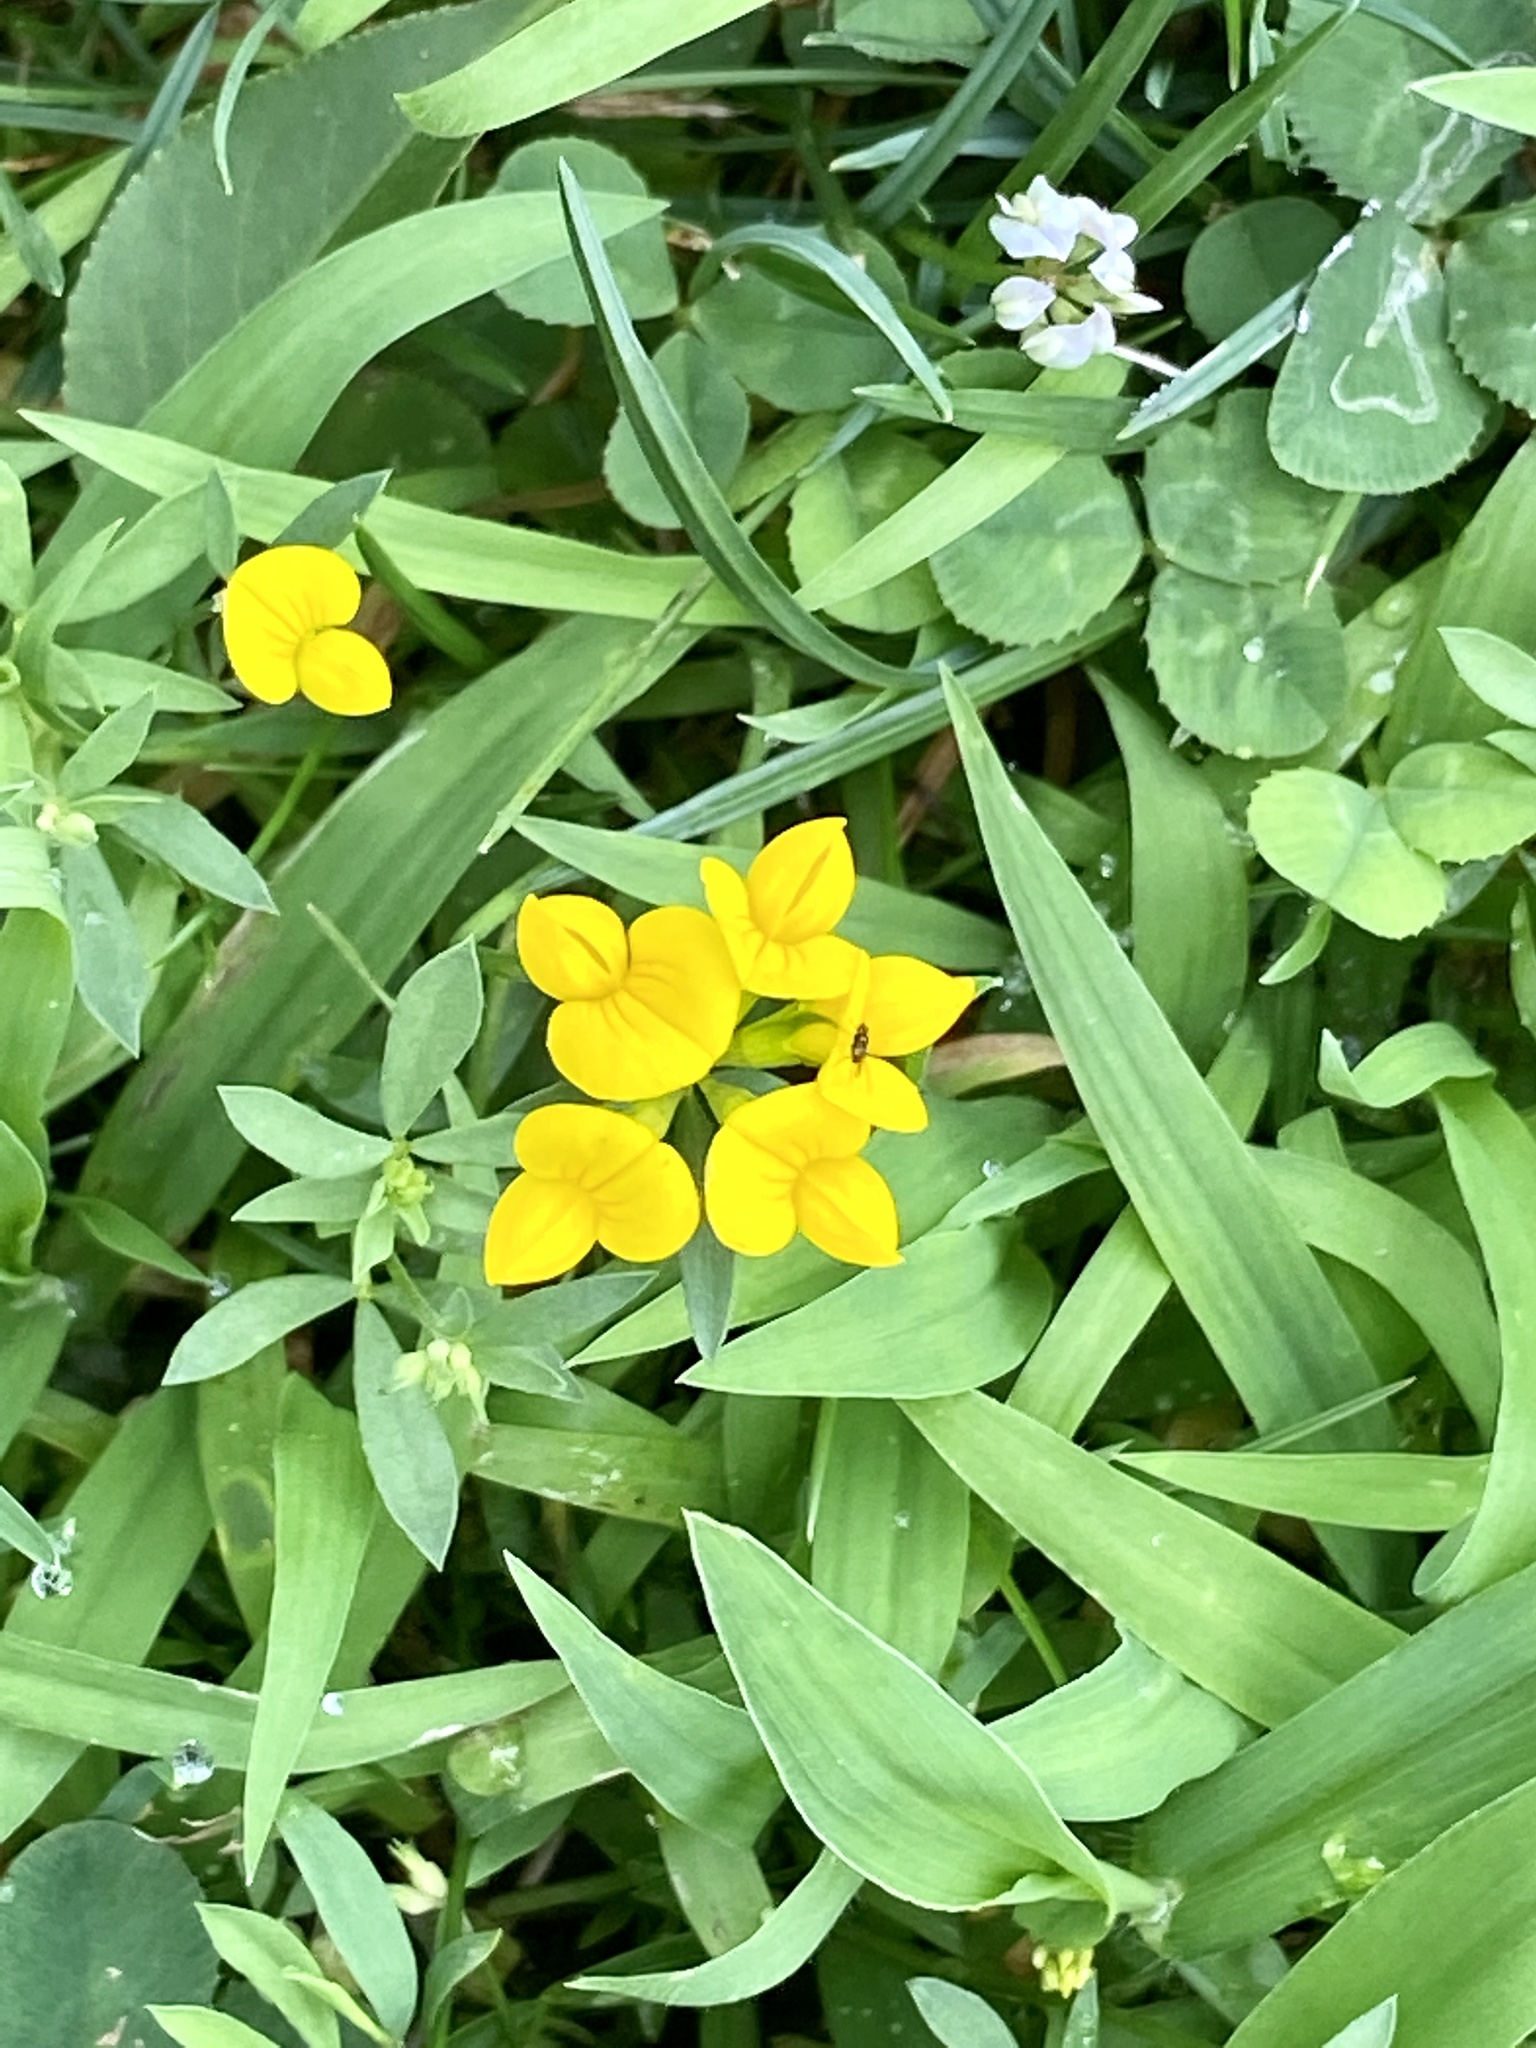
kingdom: Plantae
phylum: Tracheophyta
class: Magnoliopsida
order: Fabales
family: Fabaceae
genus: Lotus
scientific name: Lotus corniculatus
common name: Common bird's-foot-trefoil
